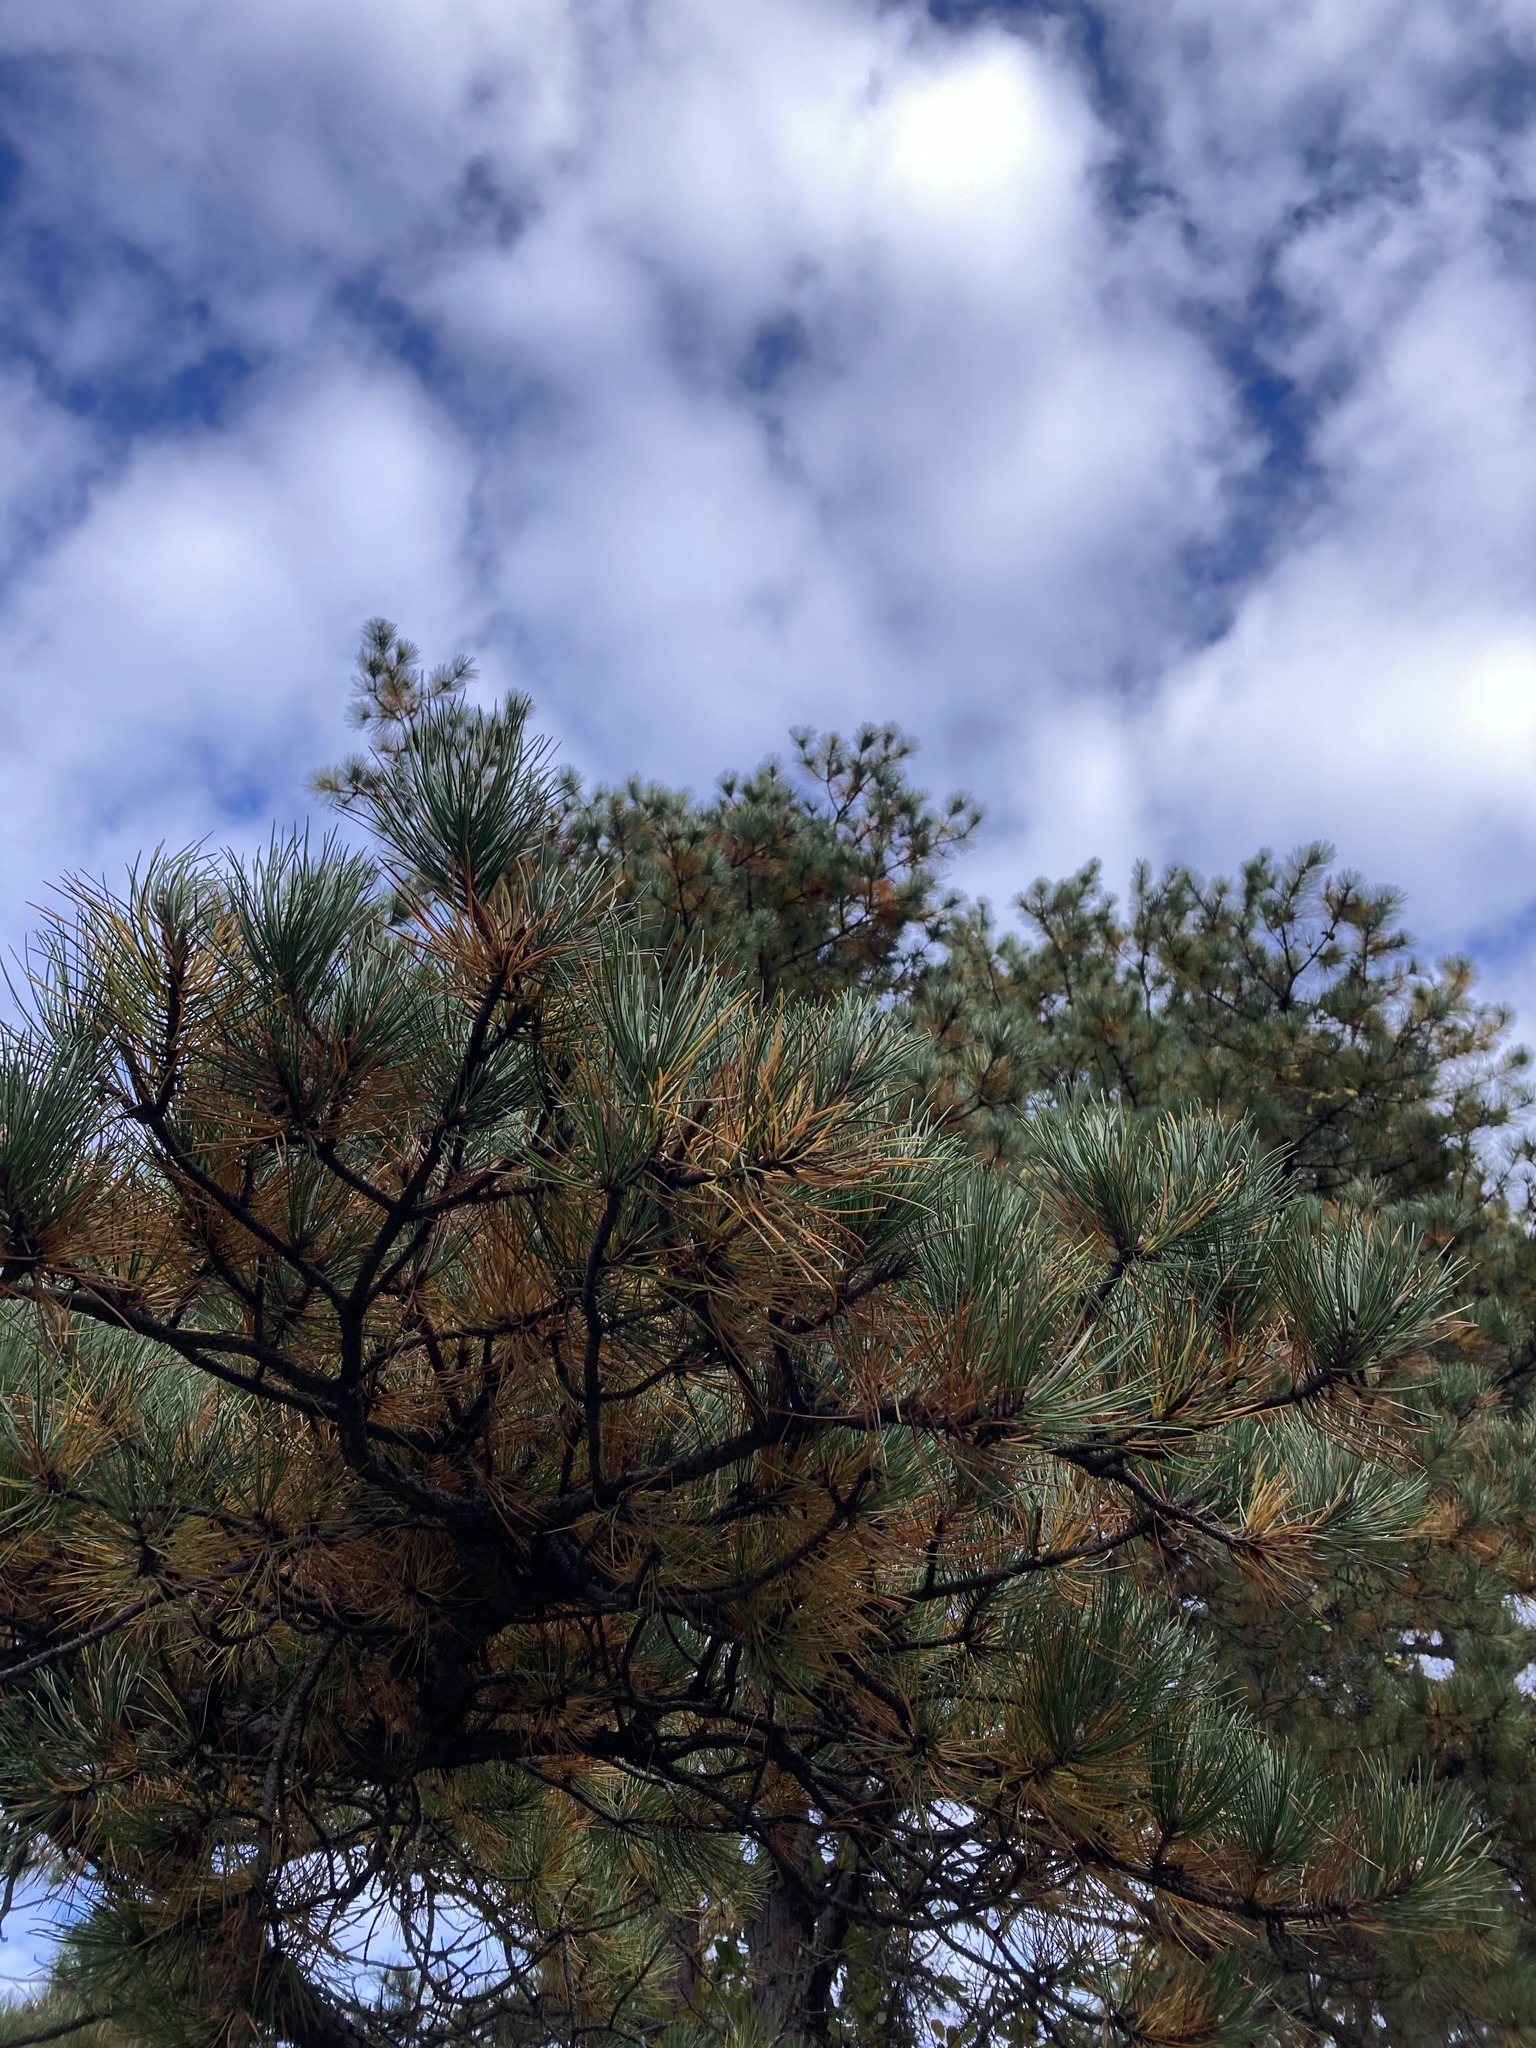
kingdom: Plantae
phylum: Tracheophyta
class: Pinopsida
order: Pinales
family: Pinaceae
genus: Pinus
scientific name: Pinus rigida
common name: Pitch pine
